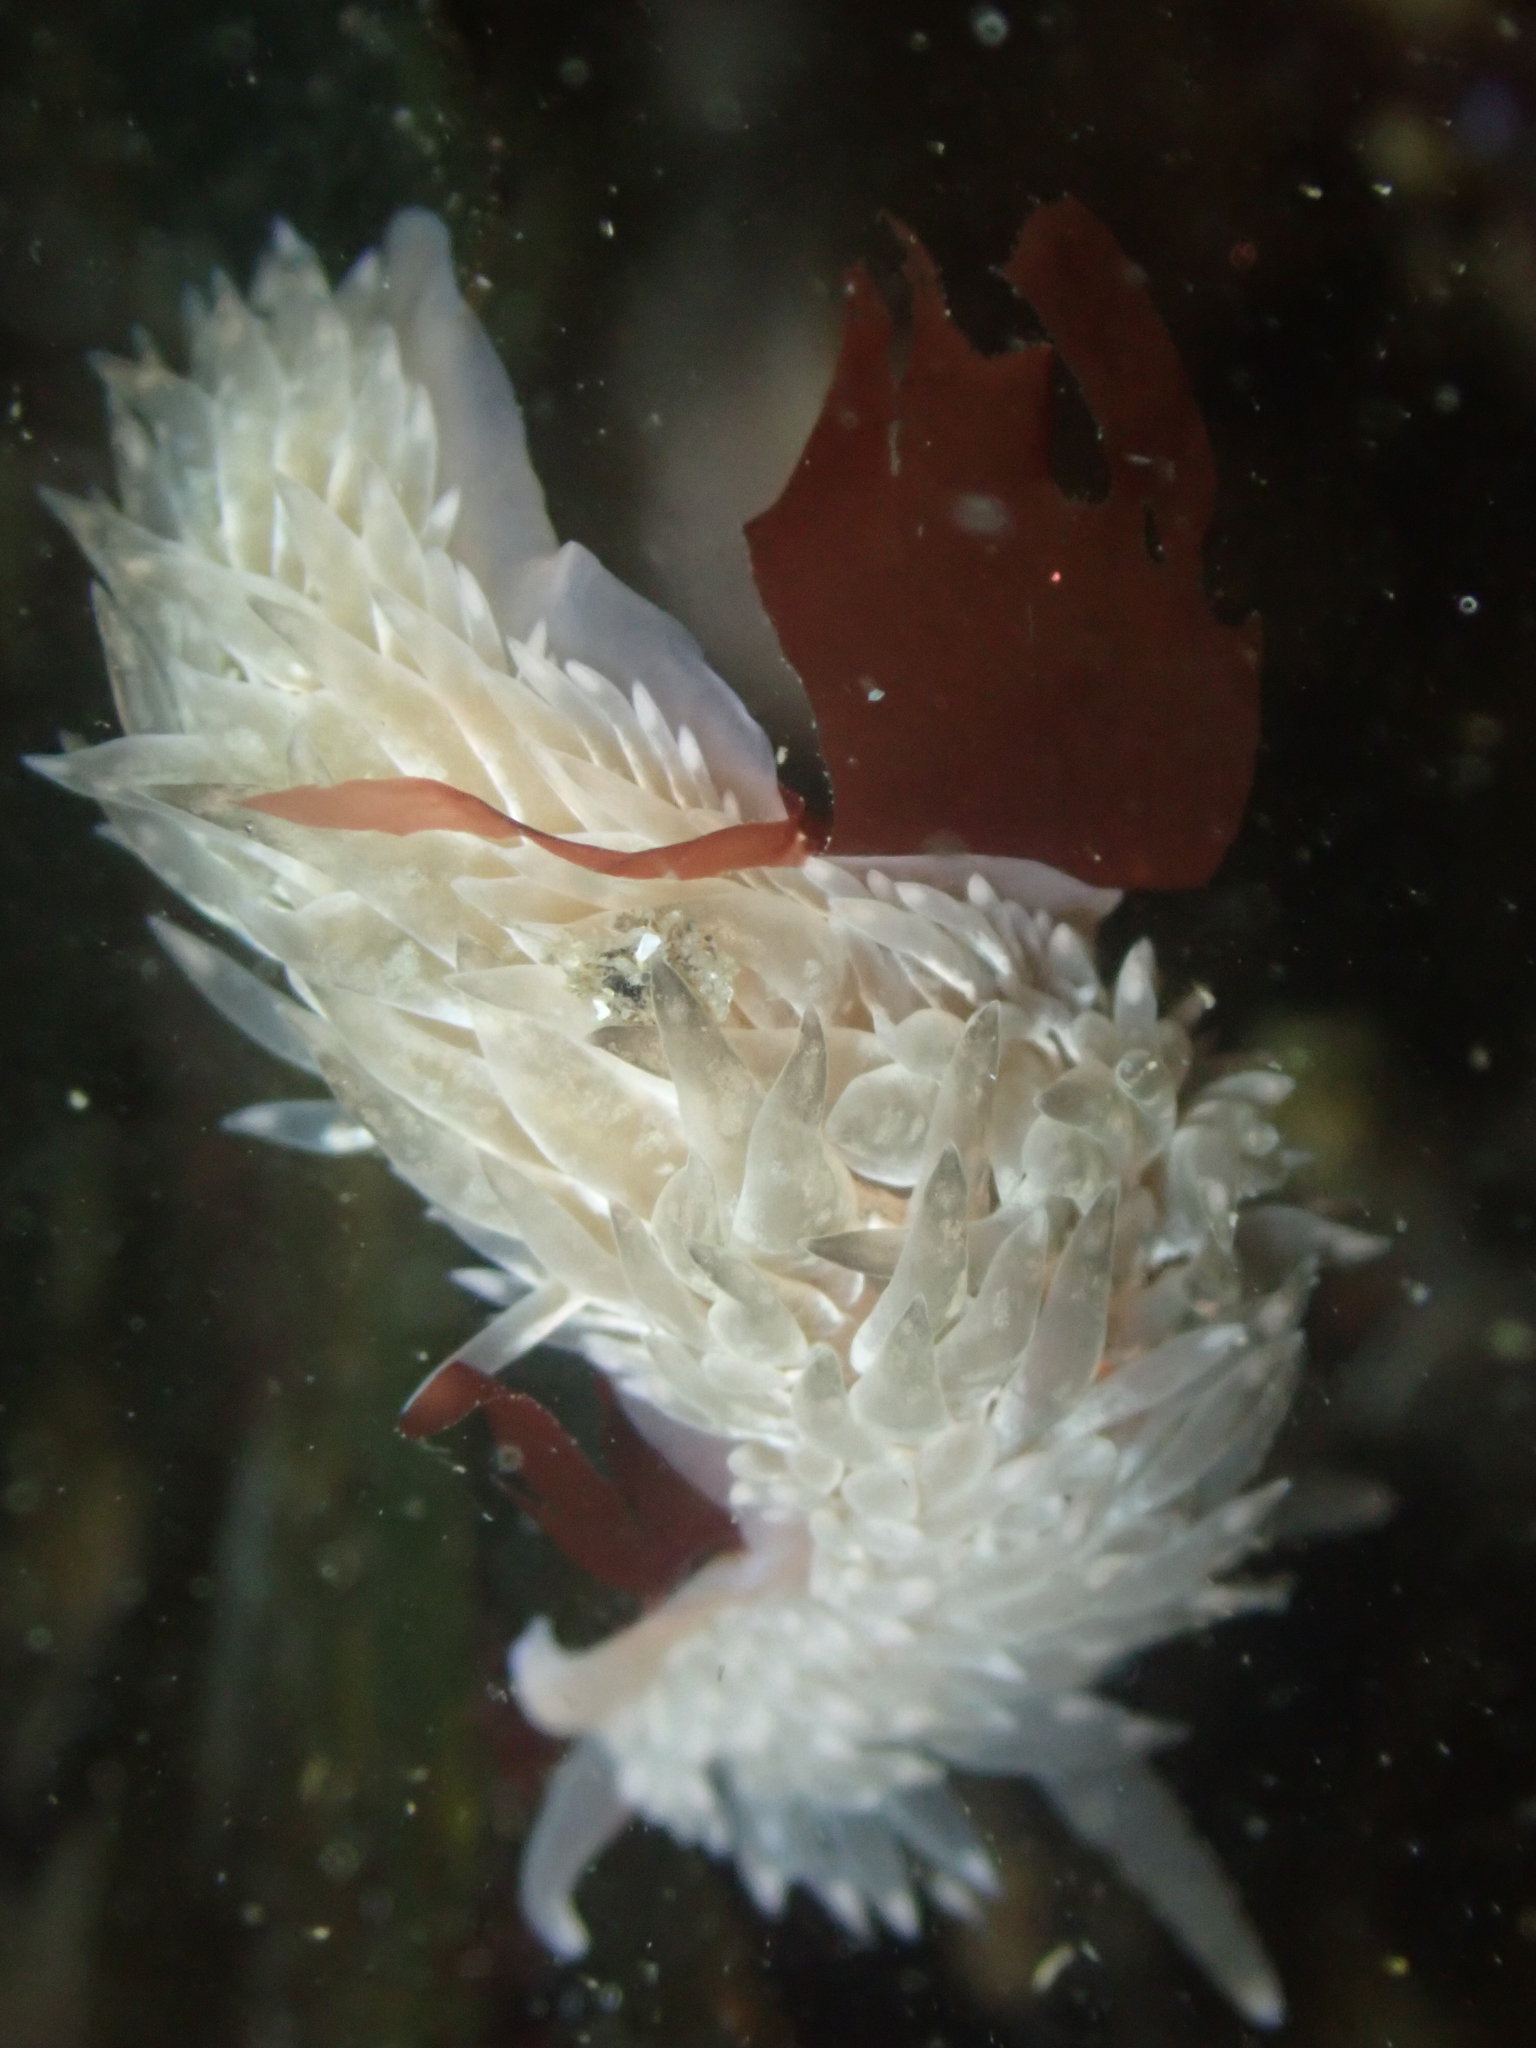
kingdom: Animalia
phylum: Mollusca
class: Gastropoda
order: Nudibranchia
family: Aeolidiidae
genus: Aeolidia
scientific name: Aeolidia loui
